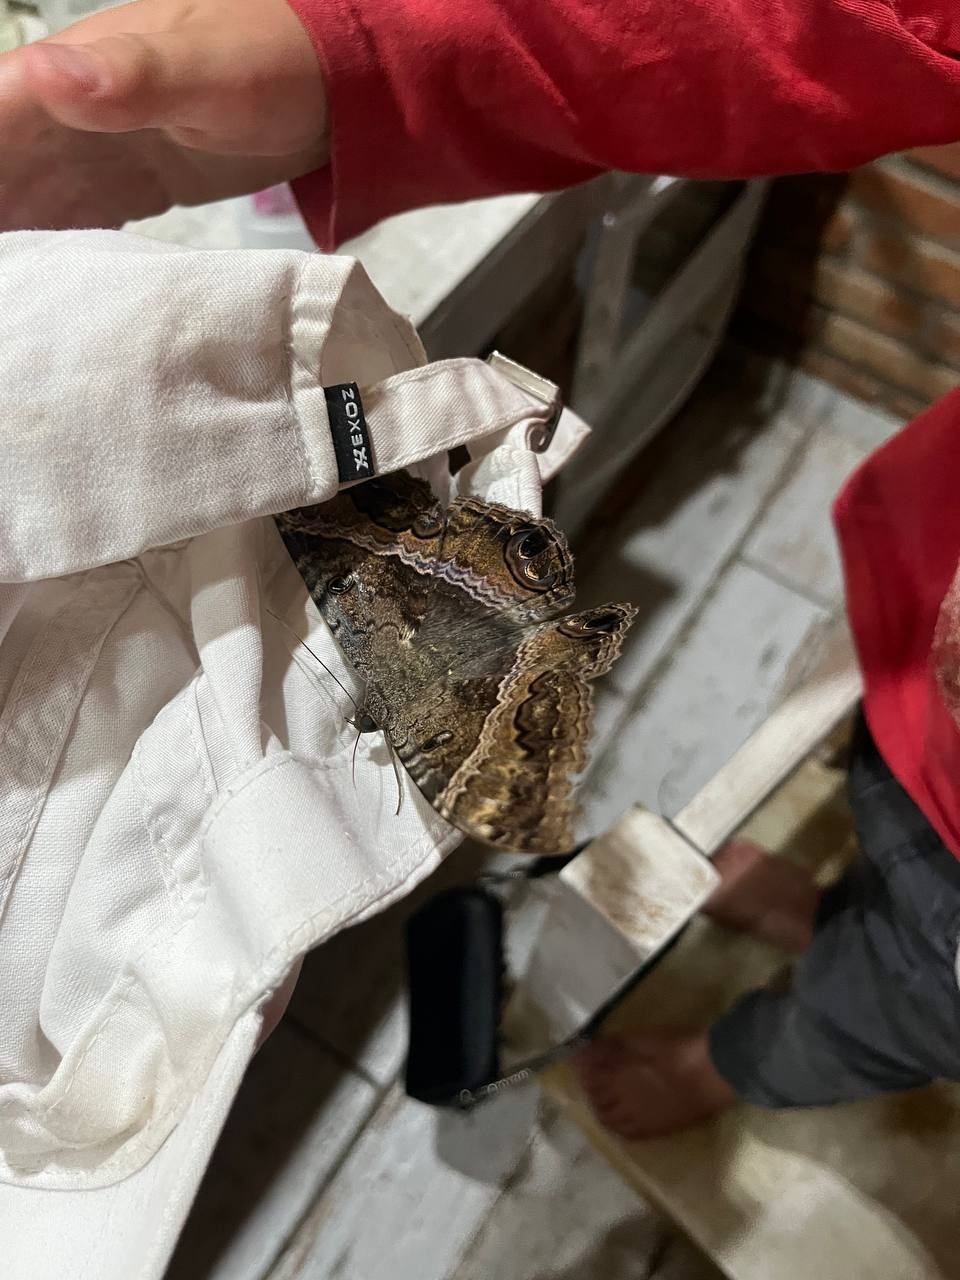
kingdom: Animalia
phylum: Arthropoda
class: Insecta
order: Lepidoptera
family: Erebidae
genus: Ascalapha
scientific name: Ascalapha odorata
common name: Black witch
